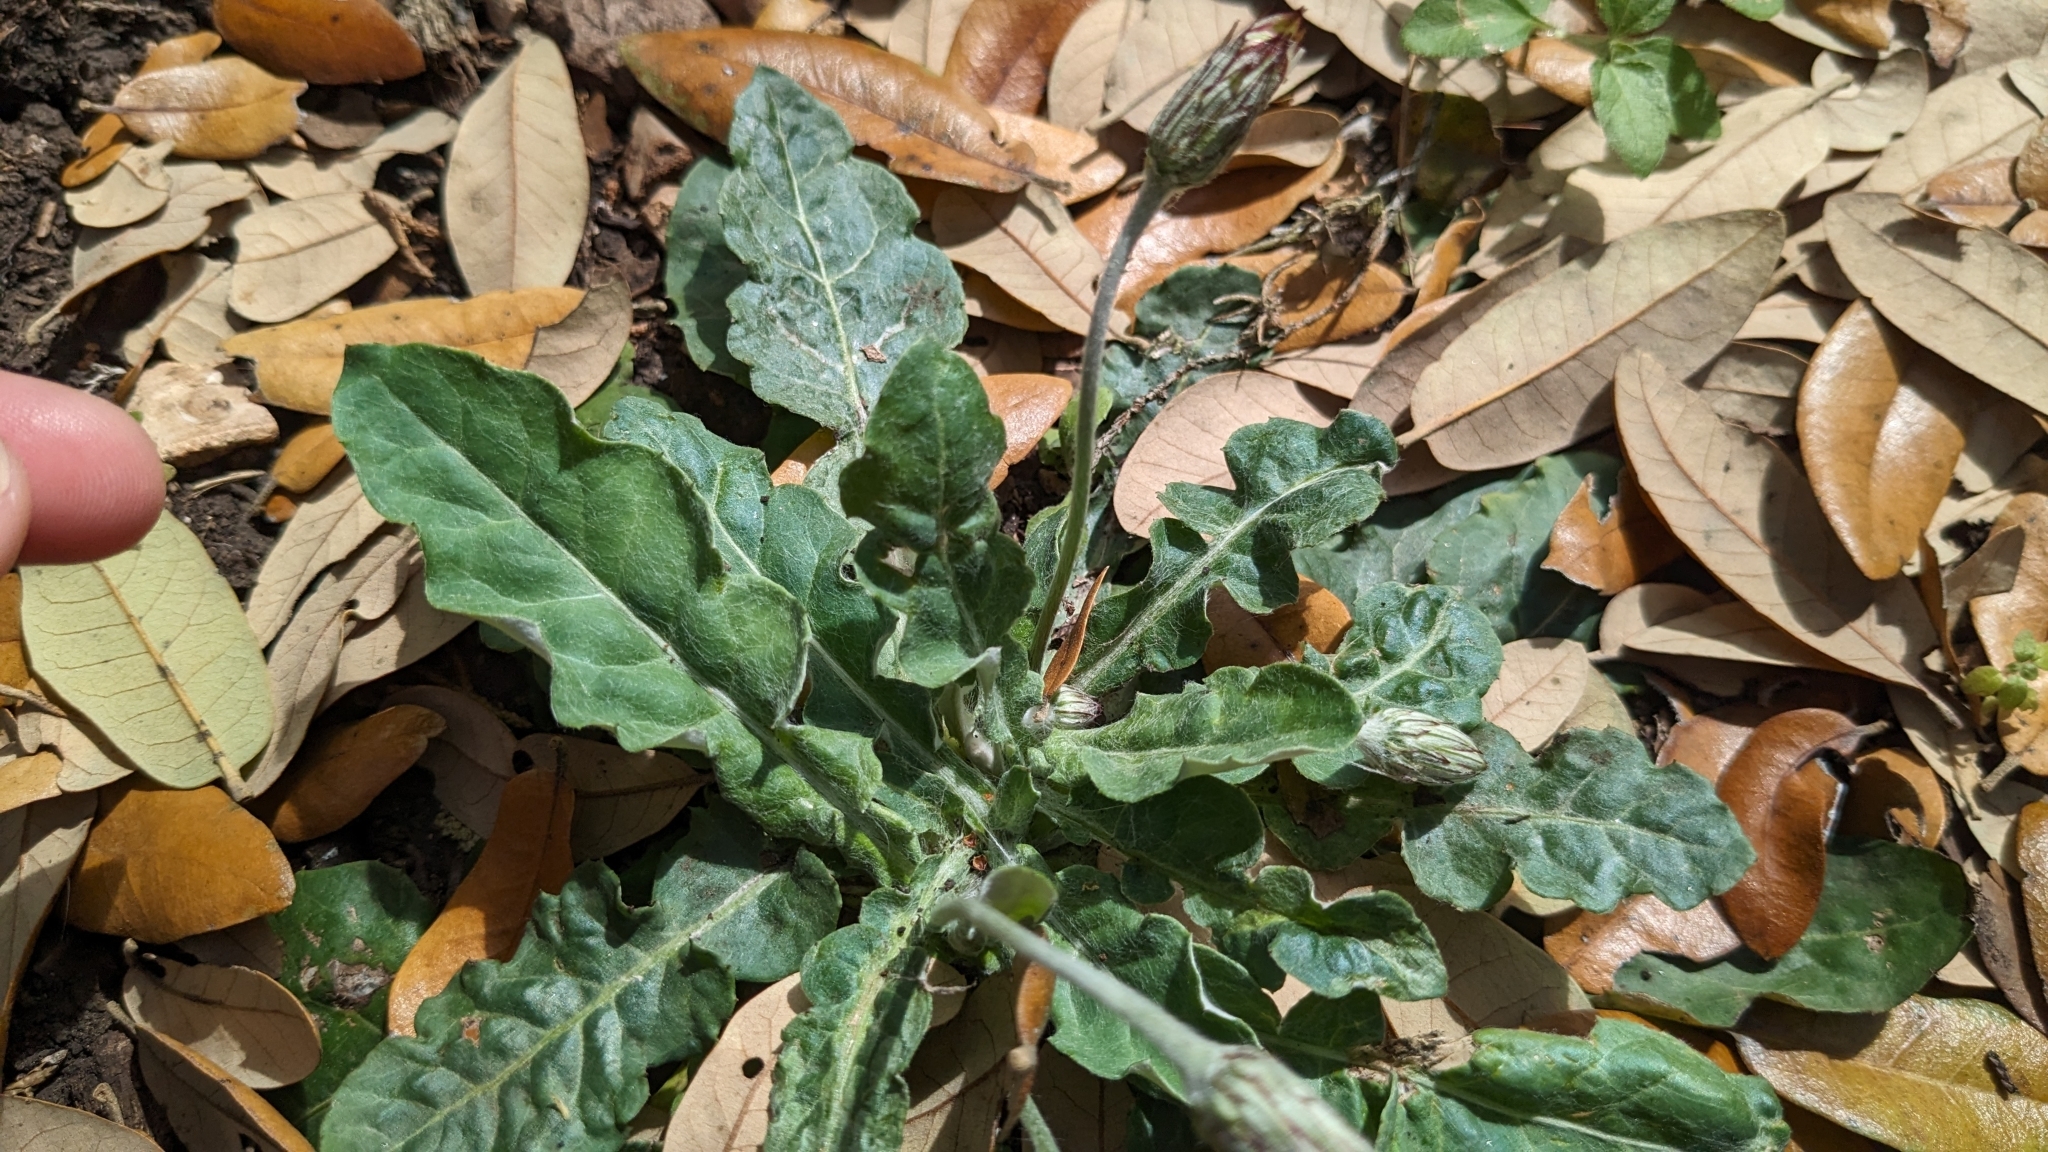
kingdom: Plantae
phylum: Tracheophyta
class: Magnoliopsida
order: Asterales
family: Asteraceae
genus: Chaptalia
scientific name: Chaptalia texana
